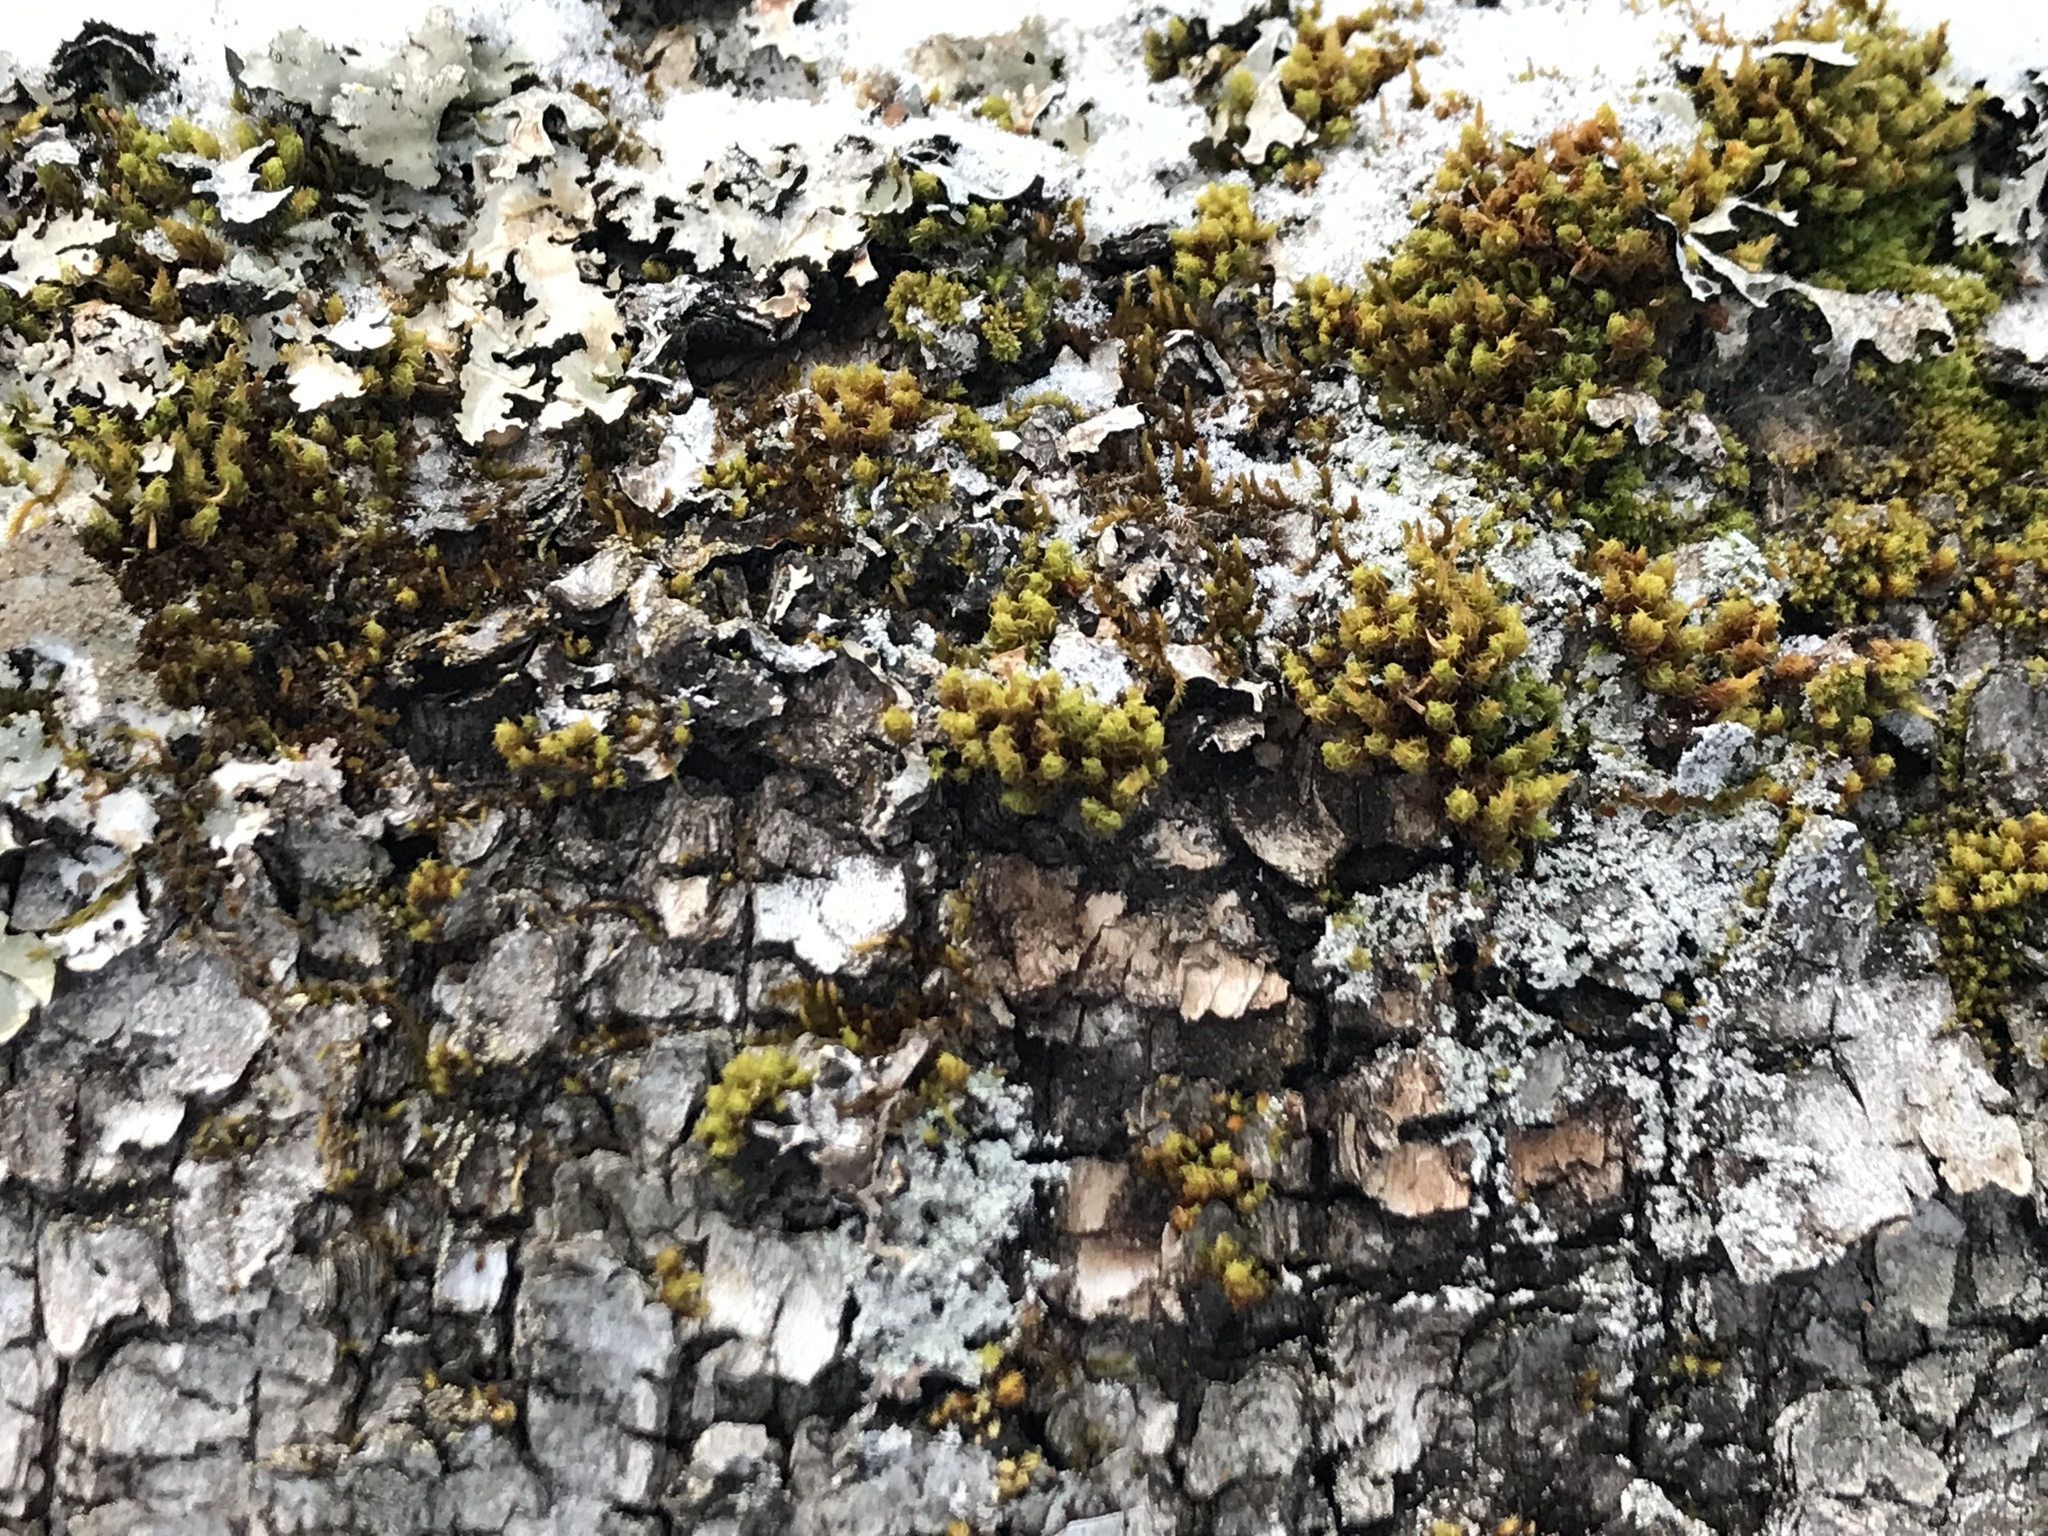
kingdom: Plantae
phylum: Bryophyta
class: Bryopsida
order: Orthotrichales
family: Orthotrichaceae
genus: Ulota
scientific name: Ulota crispula
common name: Crisped pincushion
